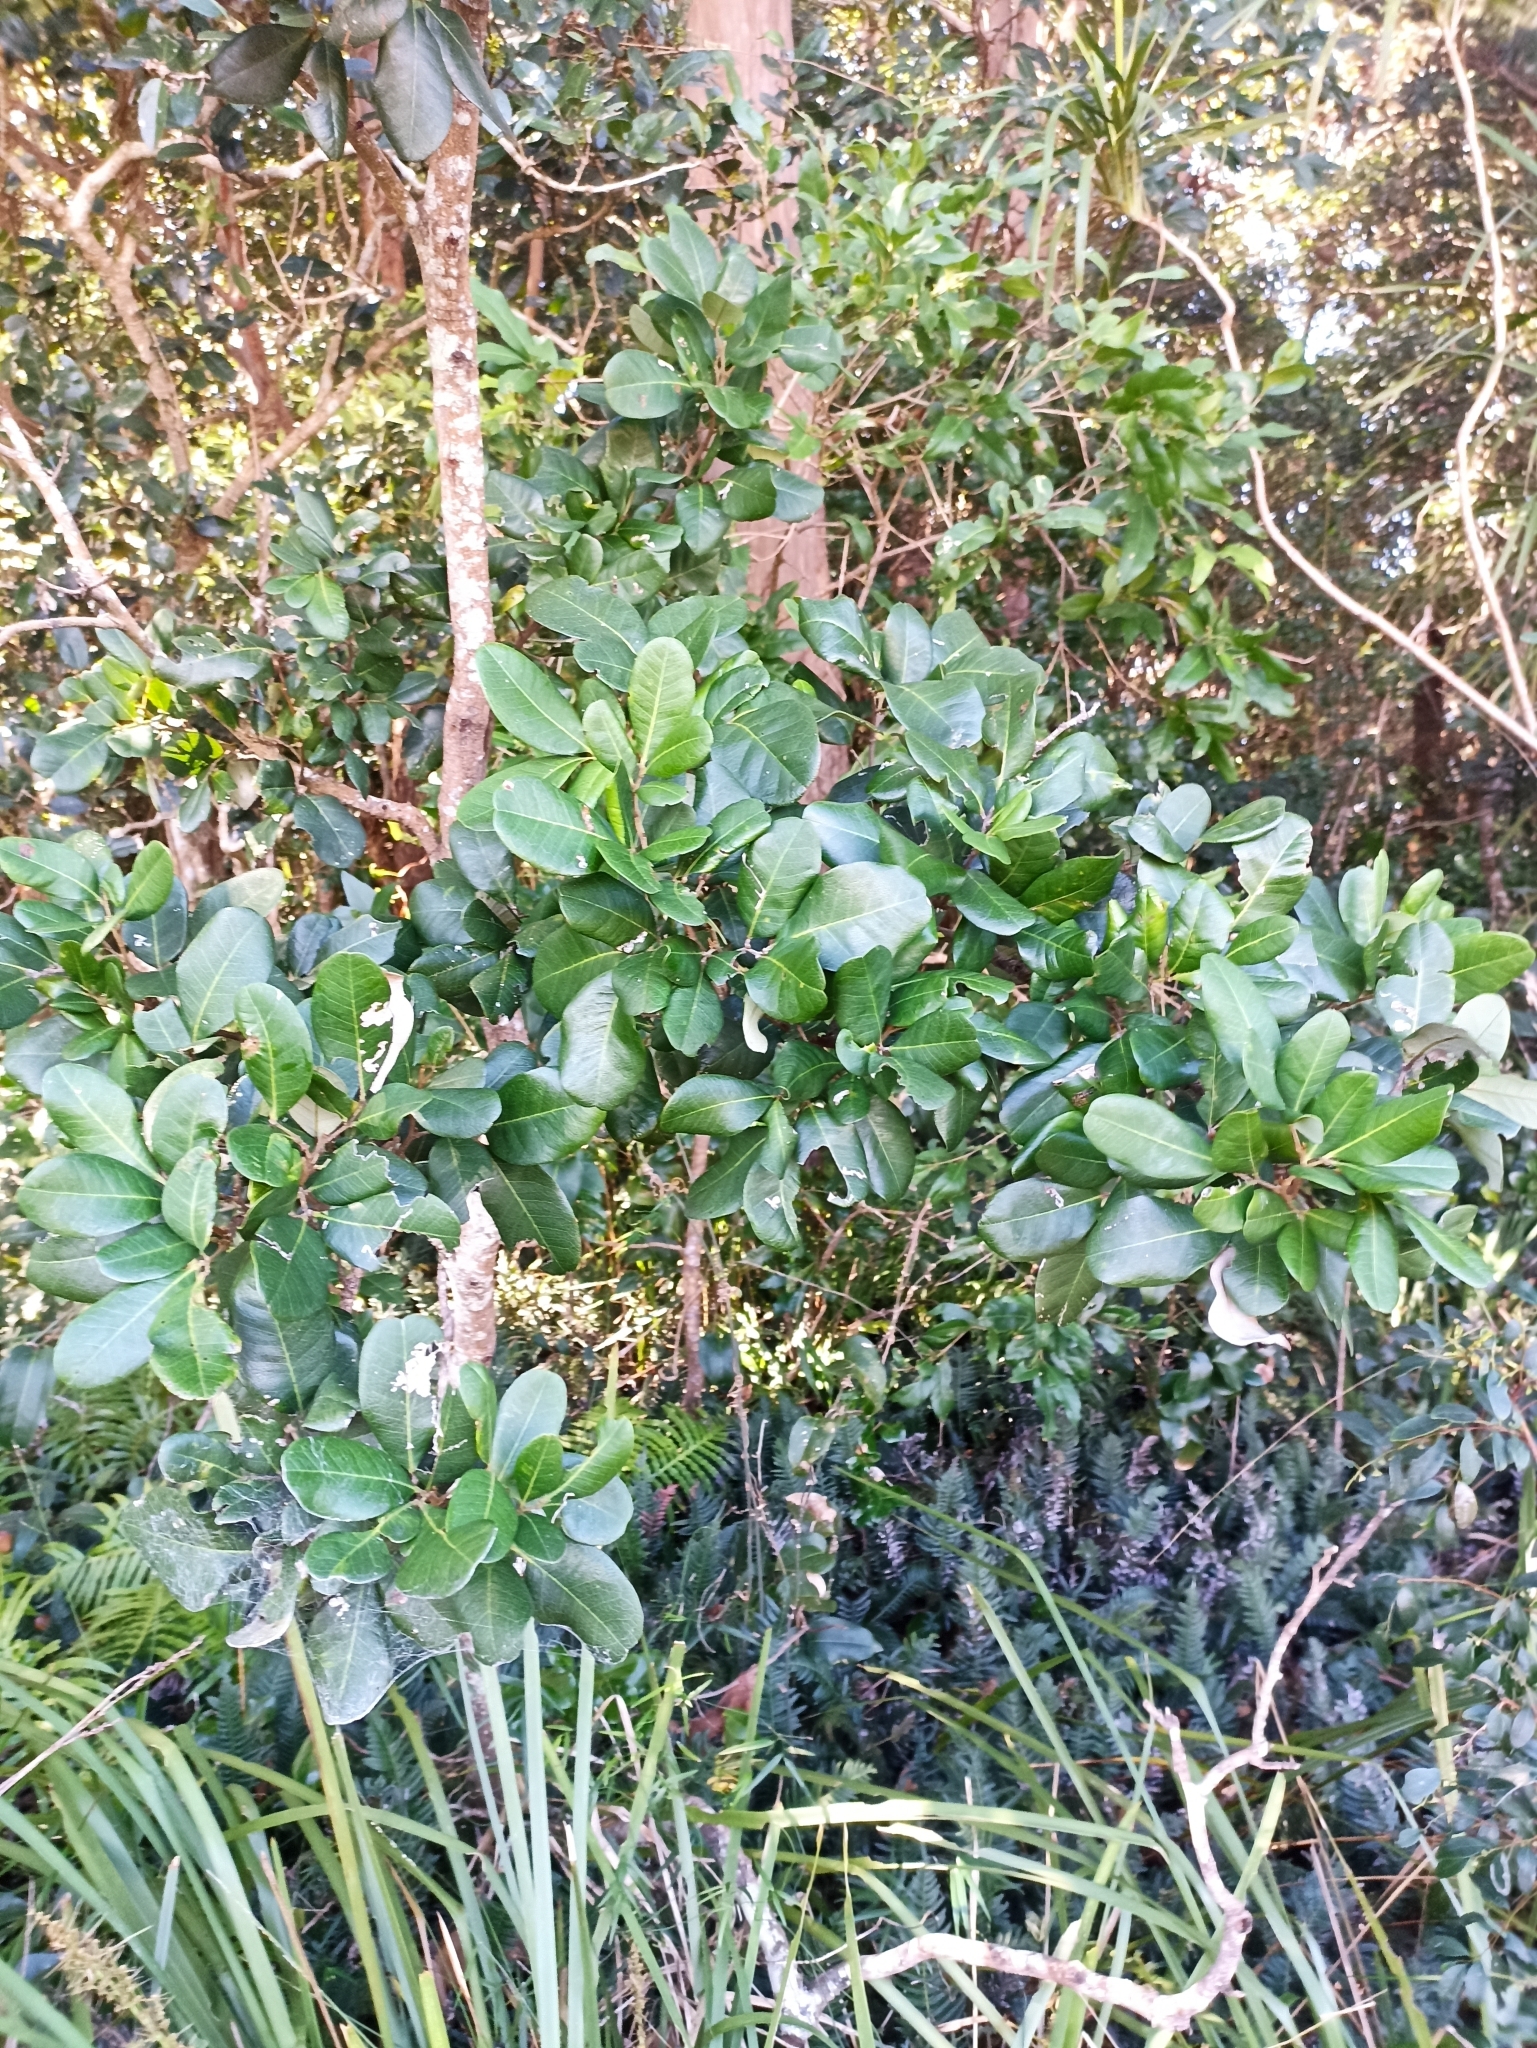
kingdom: Plantae
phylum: Tracheophyta
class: Magnoliopsida
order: Sapindales
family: Sapindaceae
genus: Alectryon
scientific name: Alectryon coriaceus
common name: Beach alectryon
